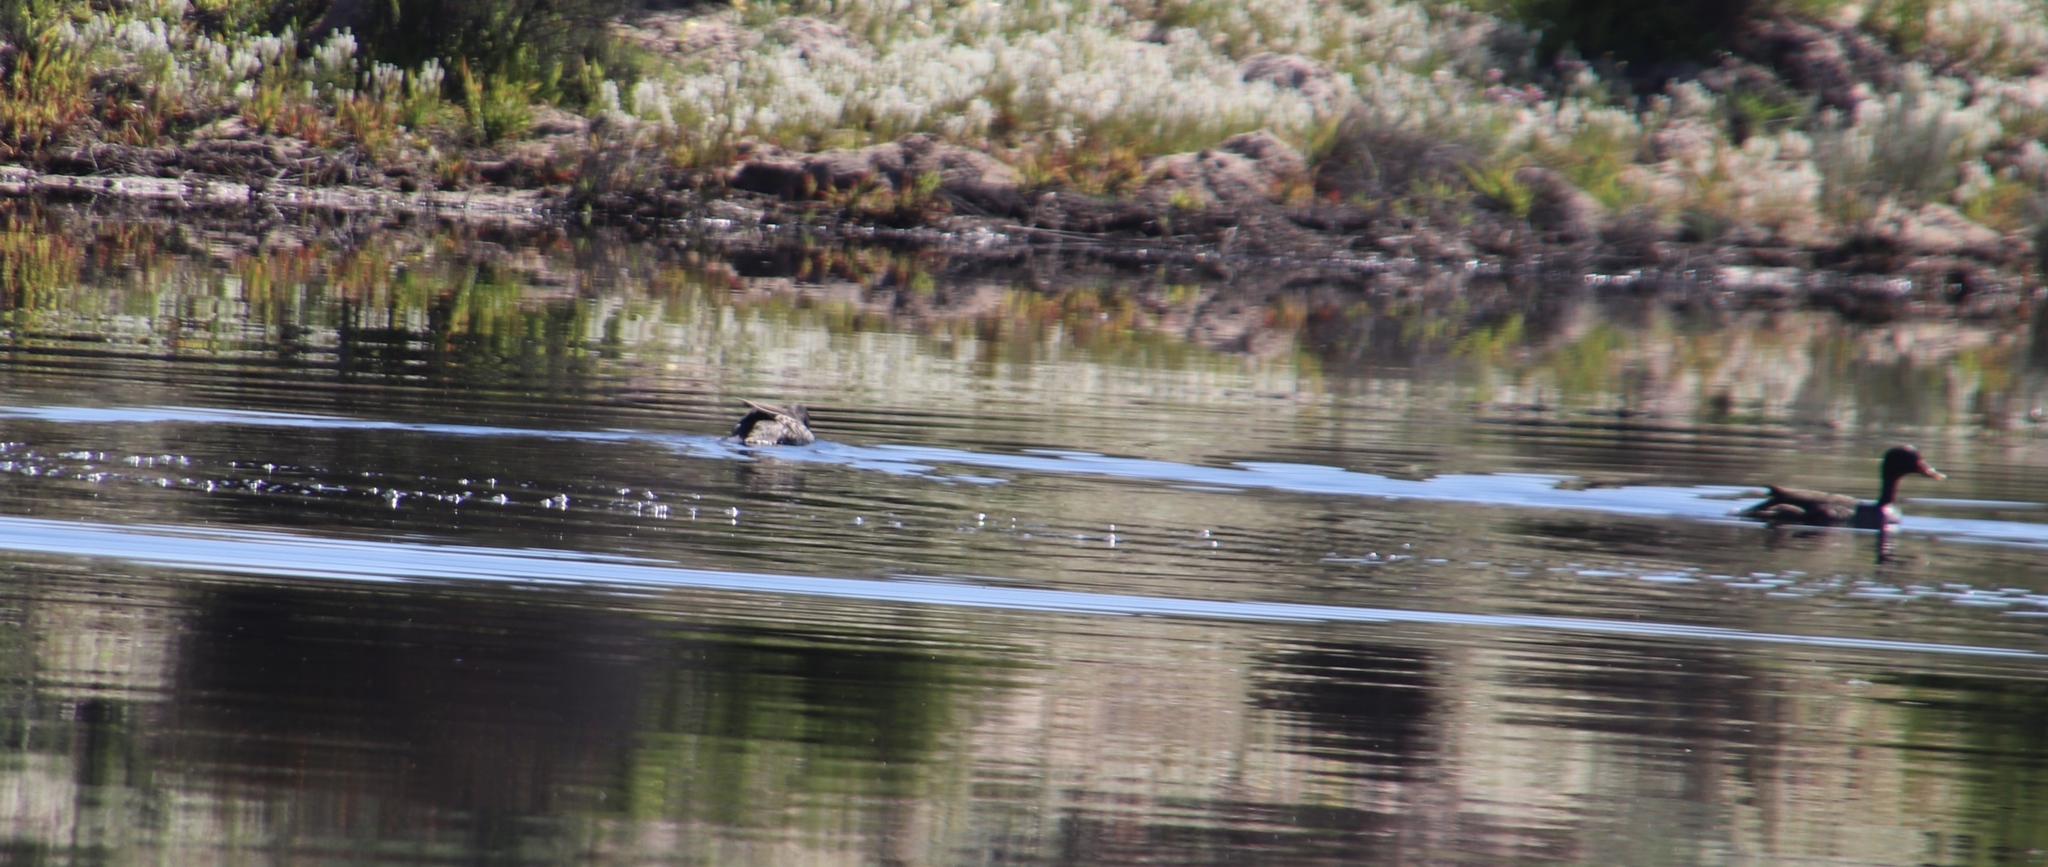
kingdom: Animalia
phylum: Chordata
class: Aves
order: Anseriformes
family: Anatidae
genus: Anas
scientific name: Anas undulata
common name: Yellow-billed duck
